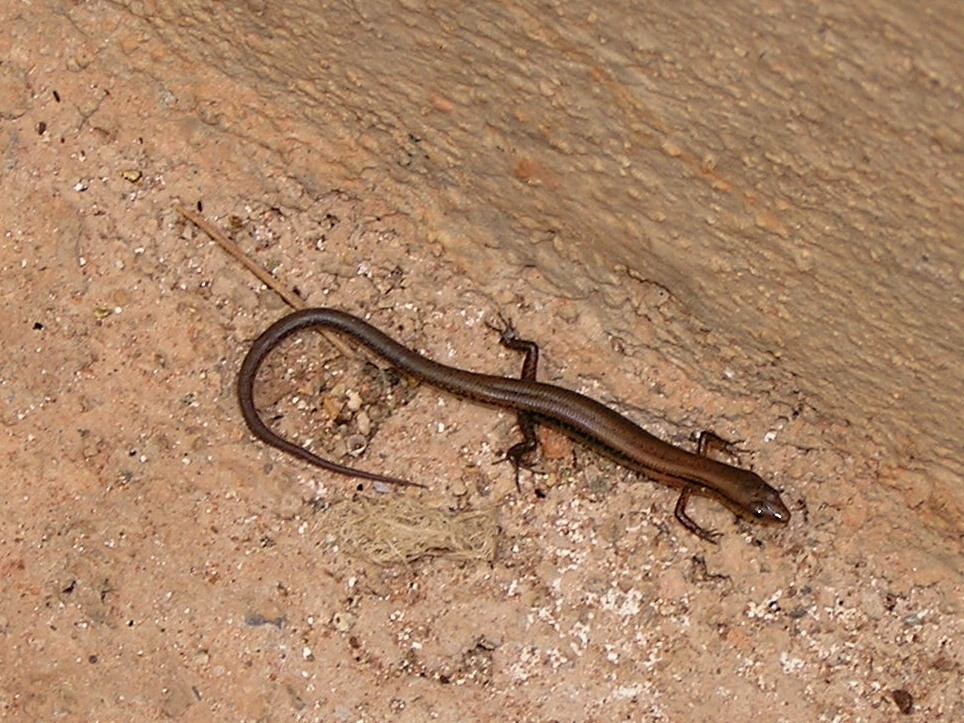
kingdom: Animalia
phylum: Chordata
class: Squamata
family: Scincidae
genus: Scincella
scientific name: Scincella reevesii
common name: Reeves’ smooth gecko
